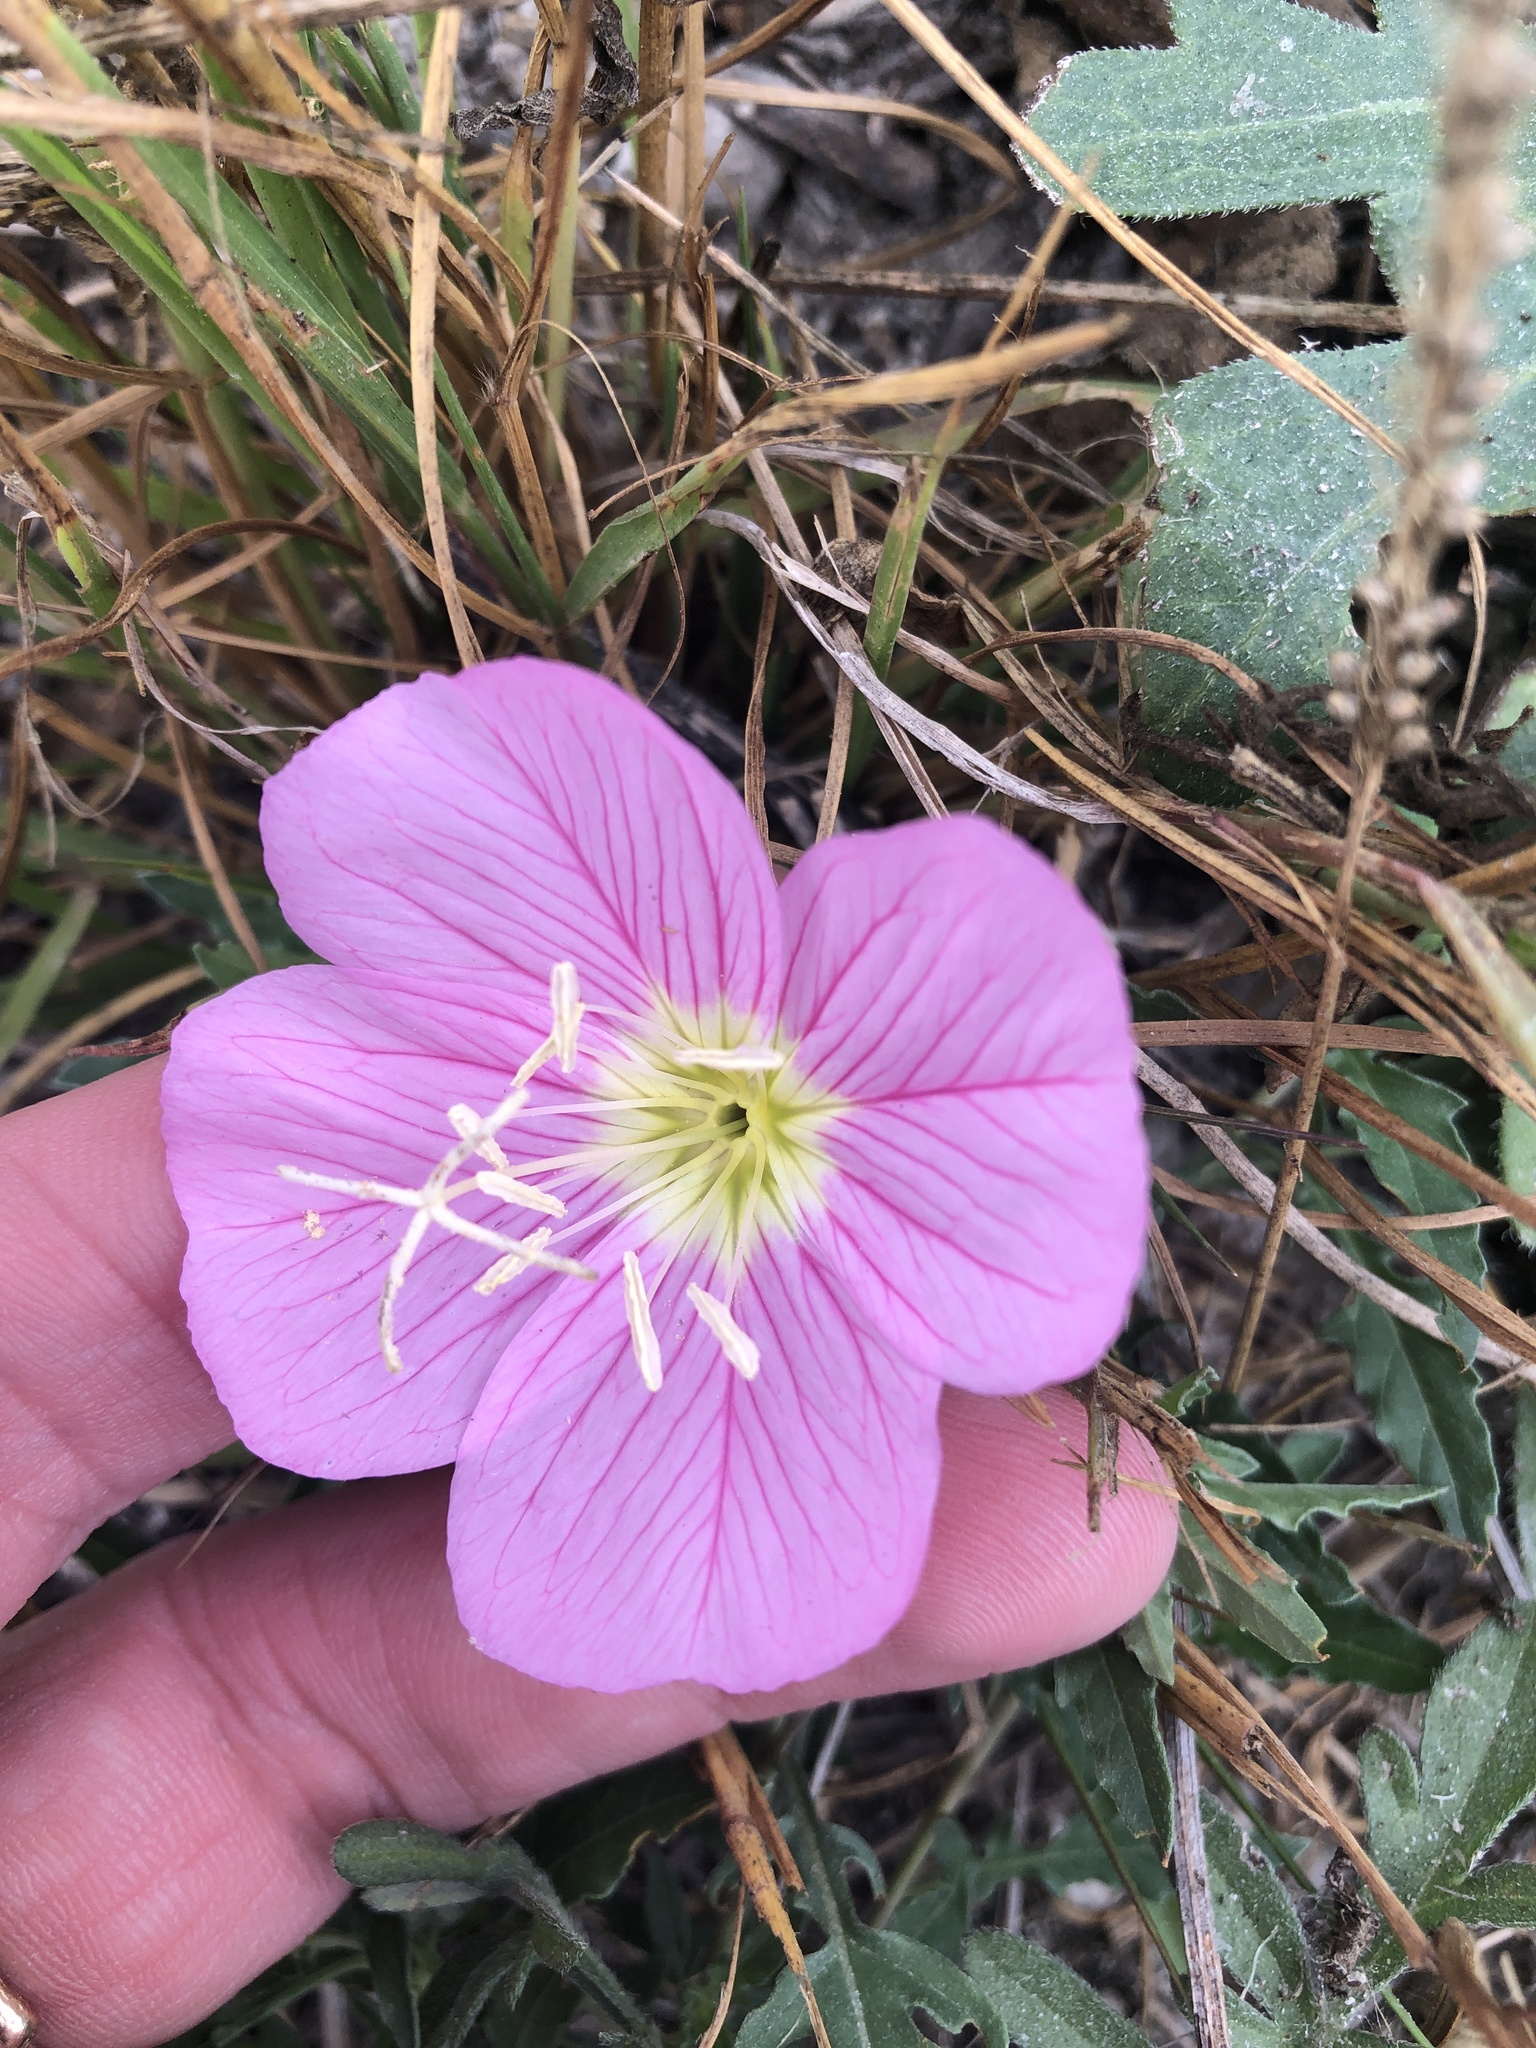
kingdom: Plantae
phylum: Tracheophyta
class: Magnoliopsida
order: Myrtales
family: Onagraceae
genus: Oenothera
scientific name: Oenothera speciosa
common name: White evening-primrose
